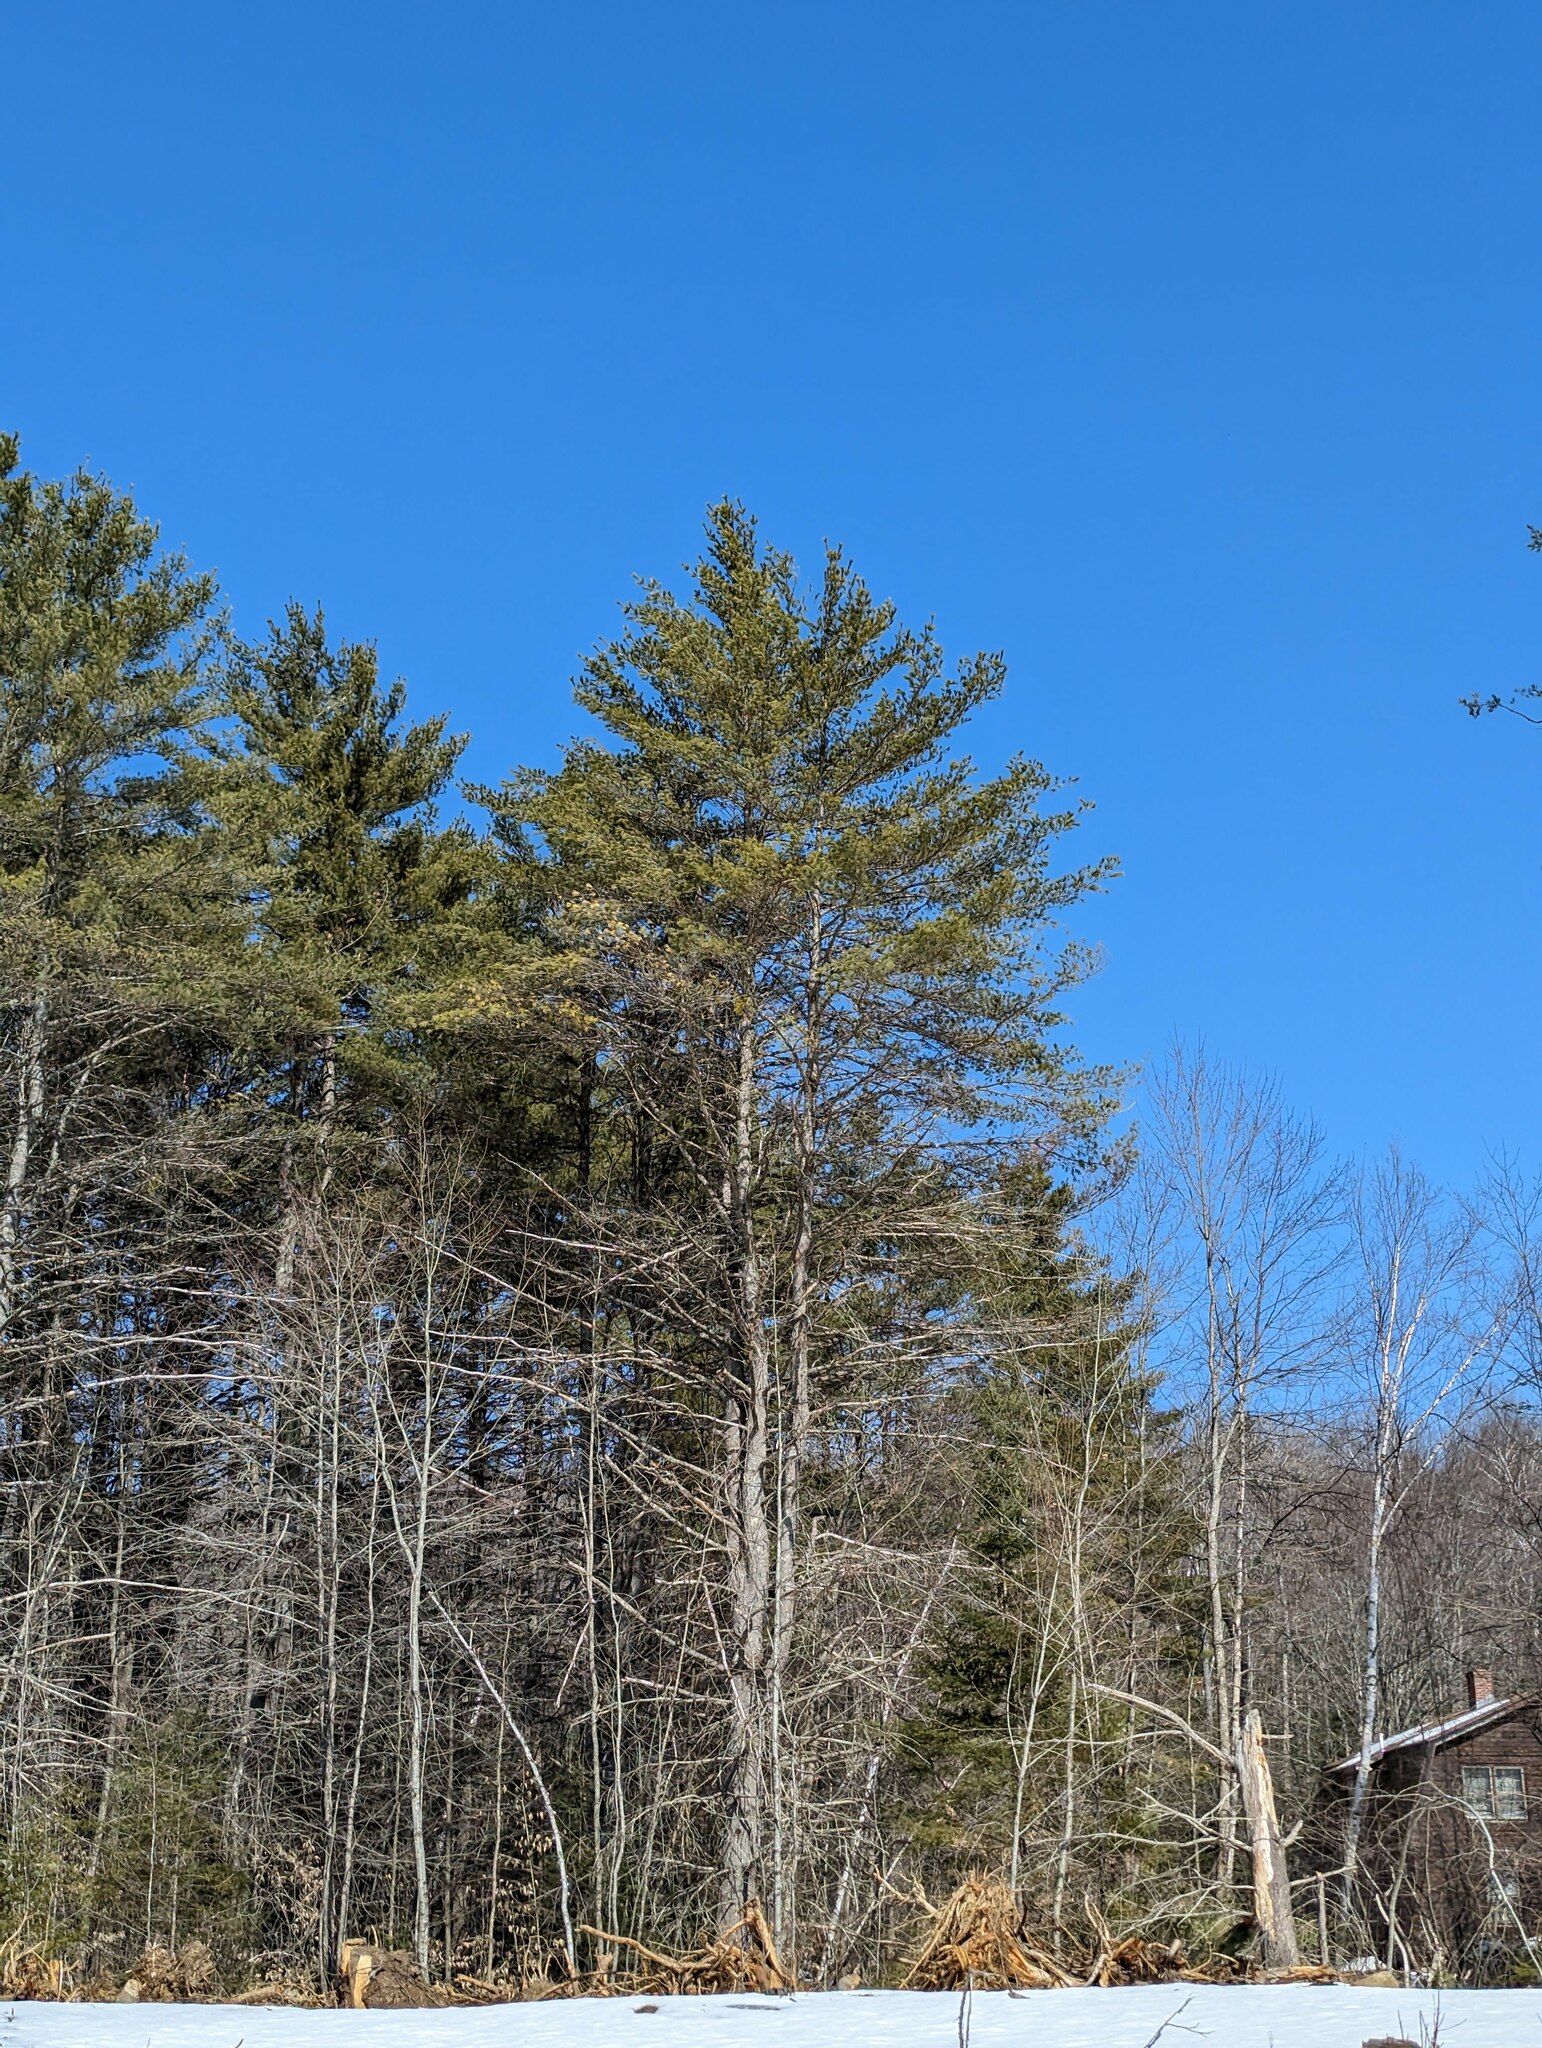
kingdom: Plantae
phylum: Tracheophyta
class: Pinopsida
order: Pinales
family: Pinaceae
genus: Pinus
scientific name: Pinus strobus
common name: Weymouth pine
